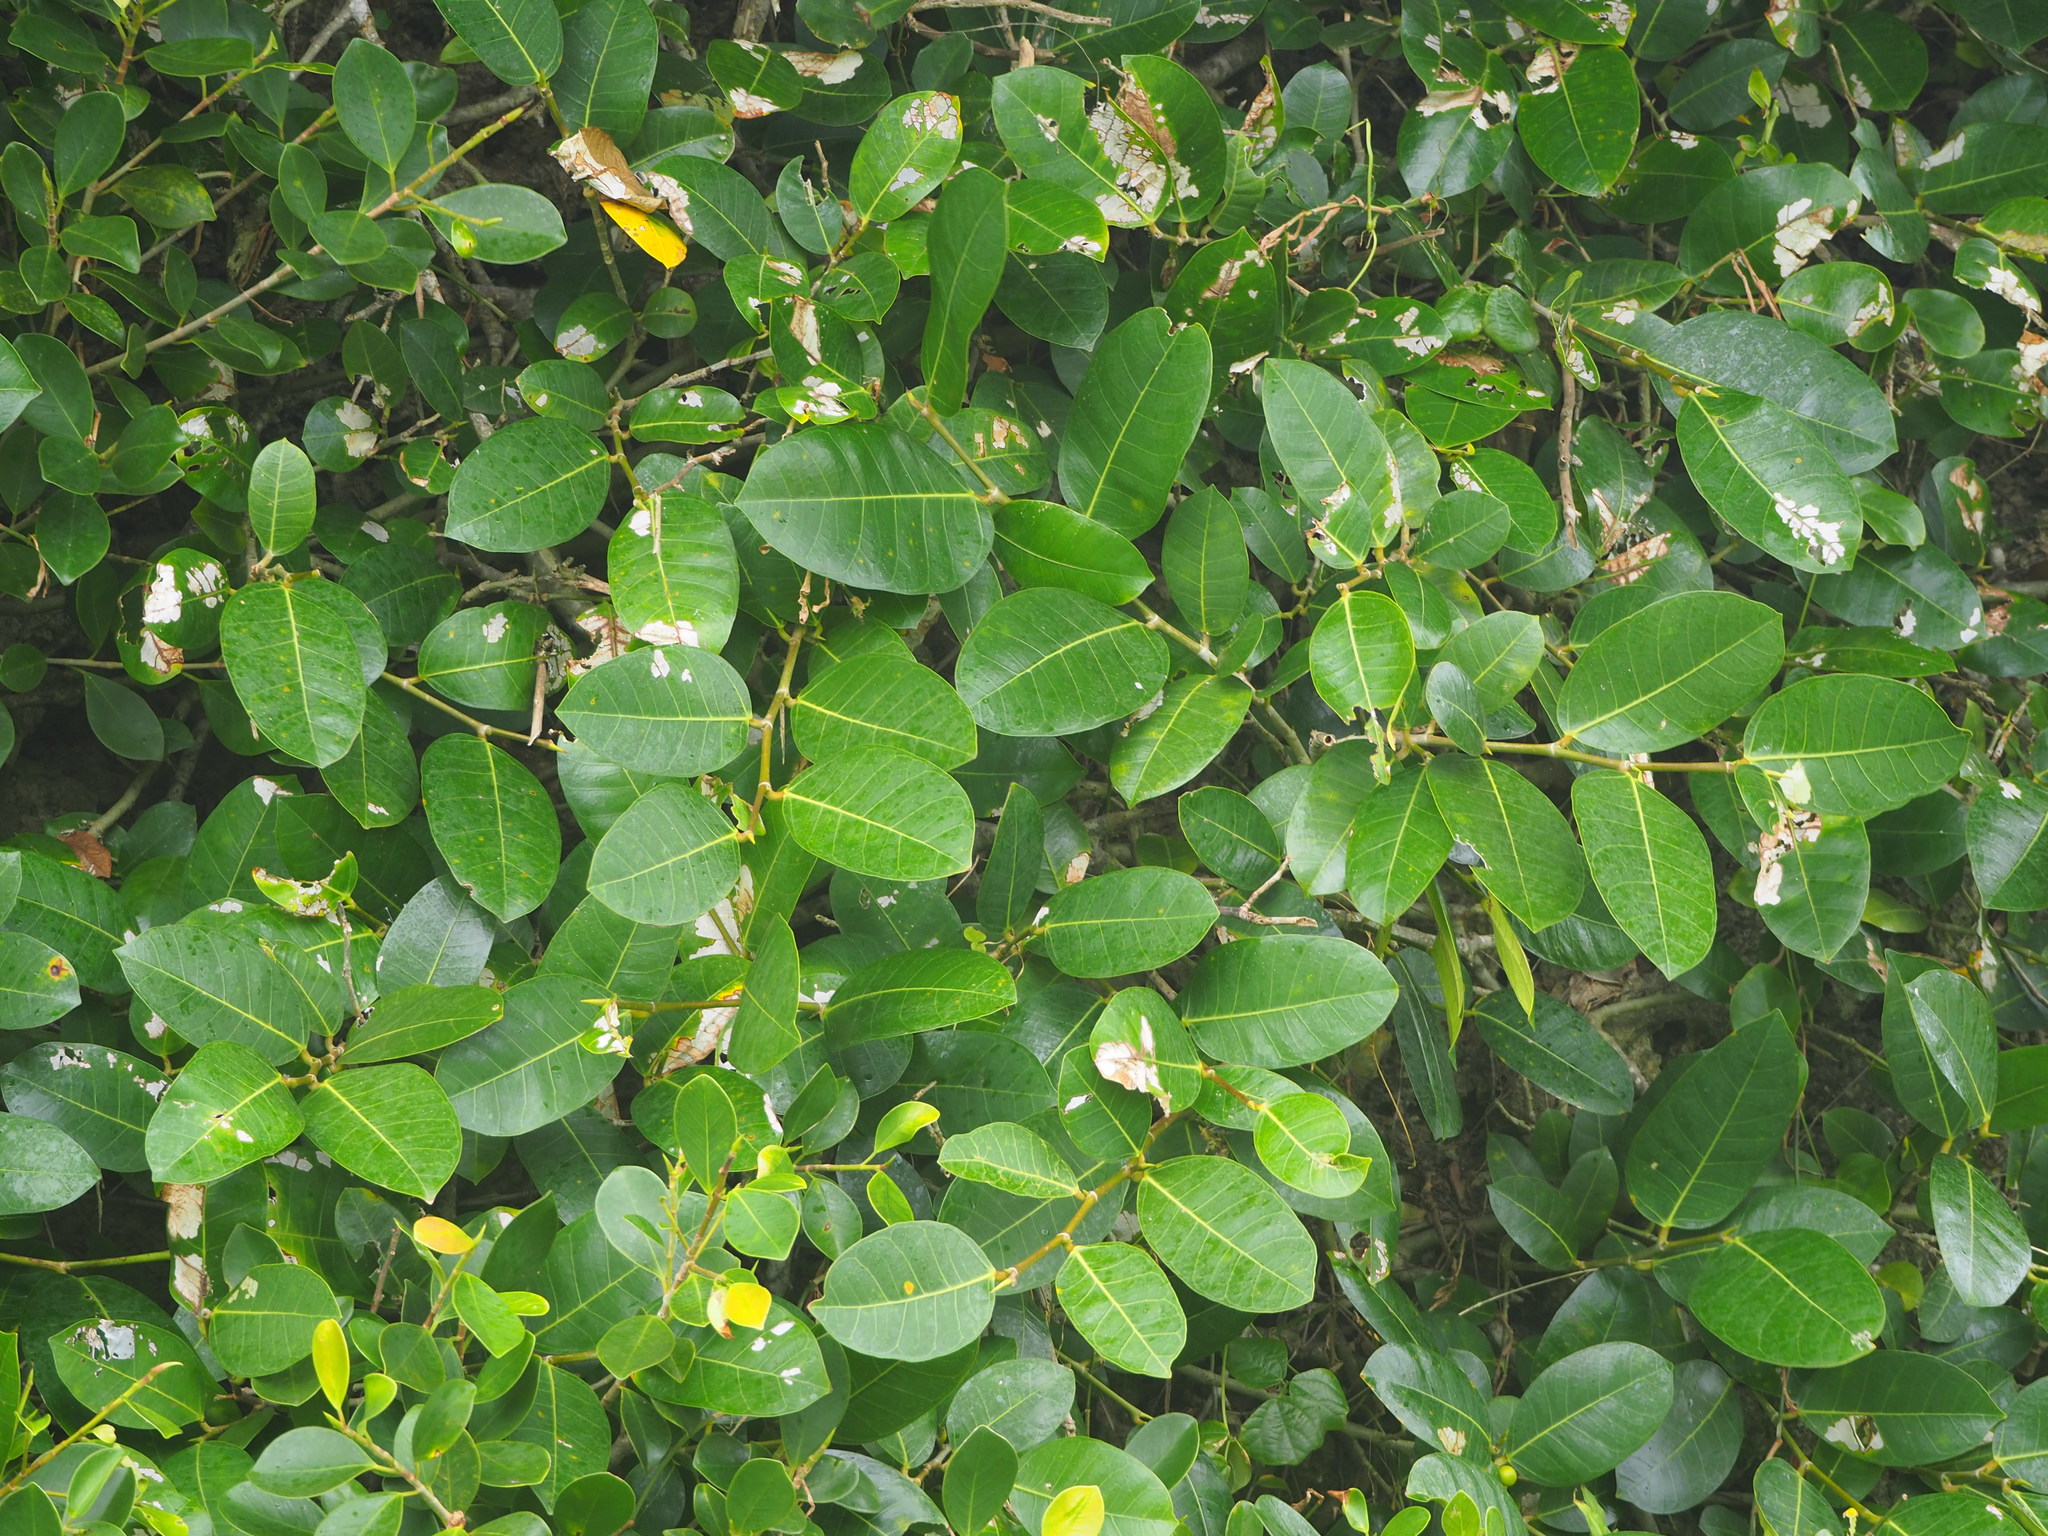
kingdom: Plantae
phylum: Tracheophyta
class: Magnoliopsida
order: Rosales
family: Moraceae
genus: Ficus
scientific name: Ficus tinctoria
